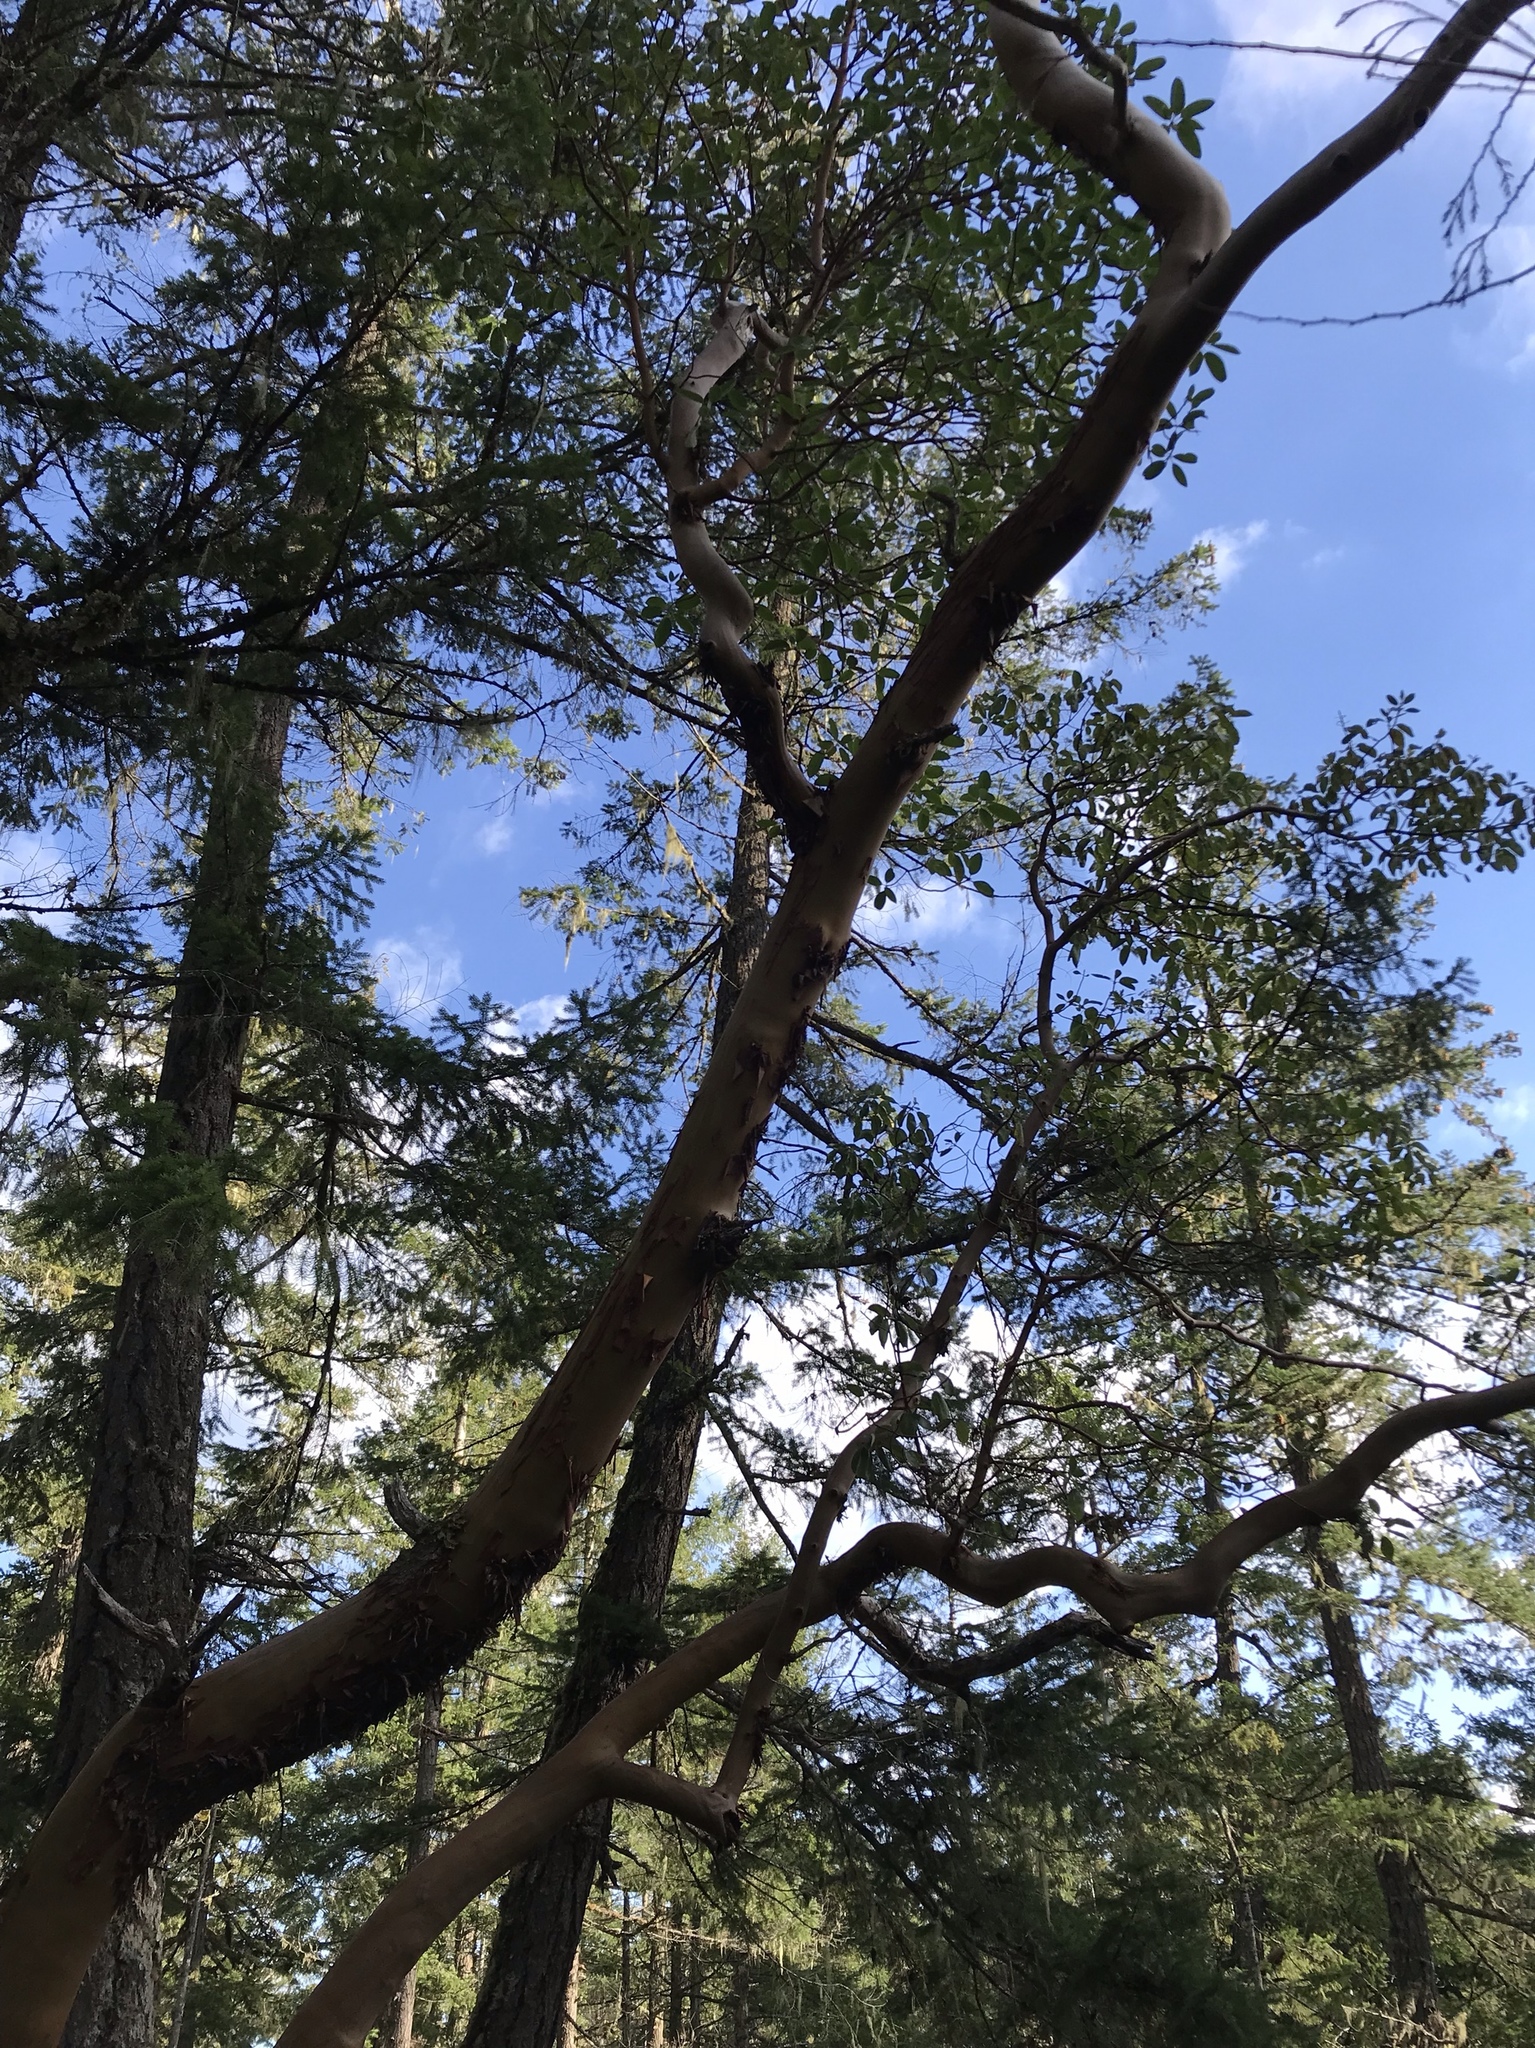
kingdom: Plantae
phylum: Tracheophyta
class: Magnoliopsida
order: Ericales
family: Ericaceae
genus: Arbutus
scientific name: Arbutus menziesii
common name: Pacific madrone
